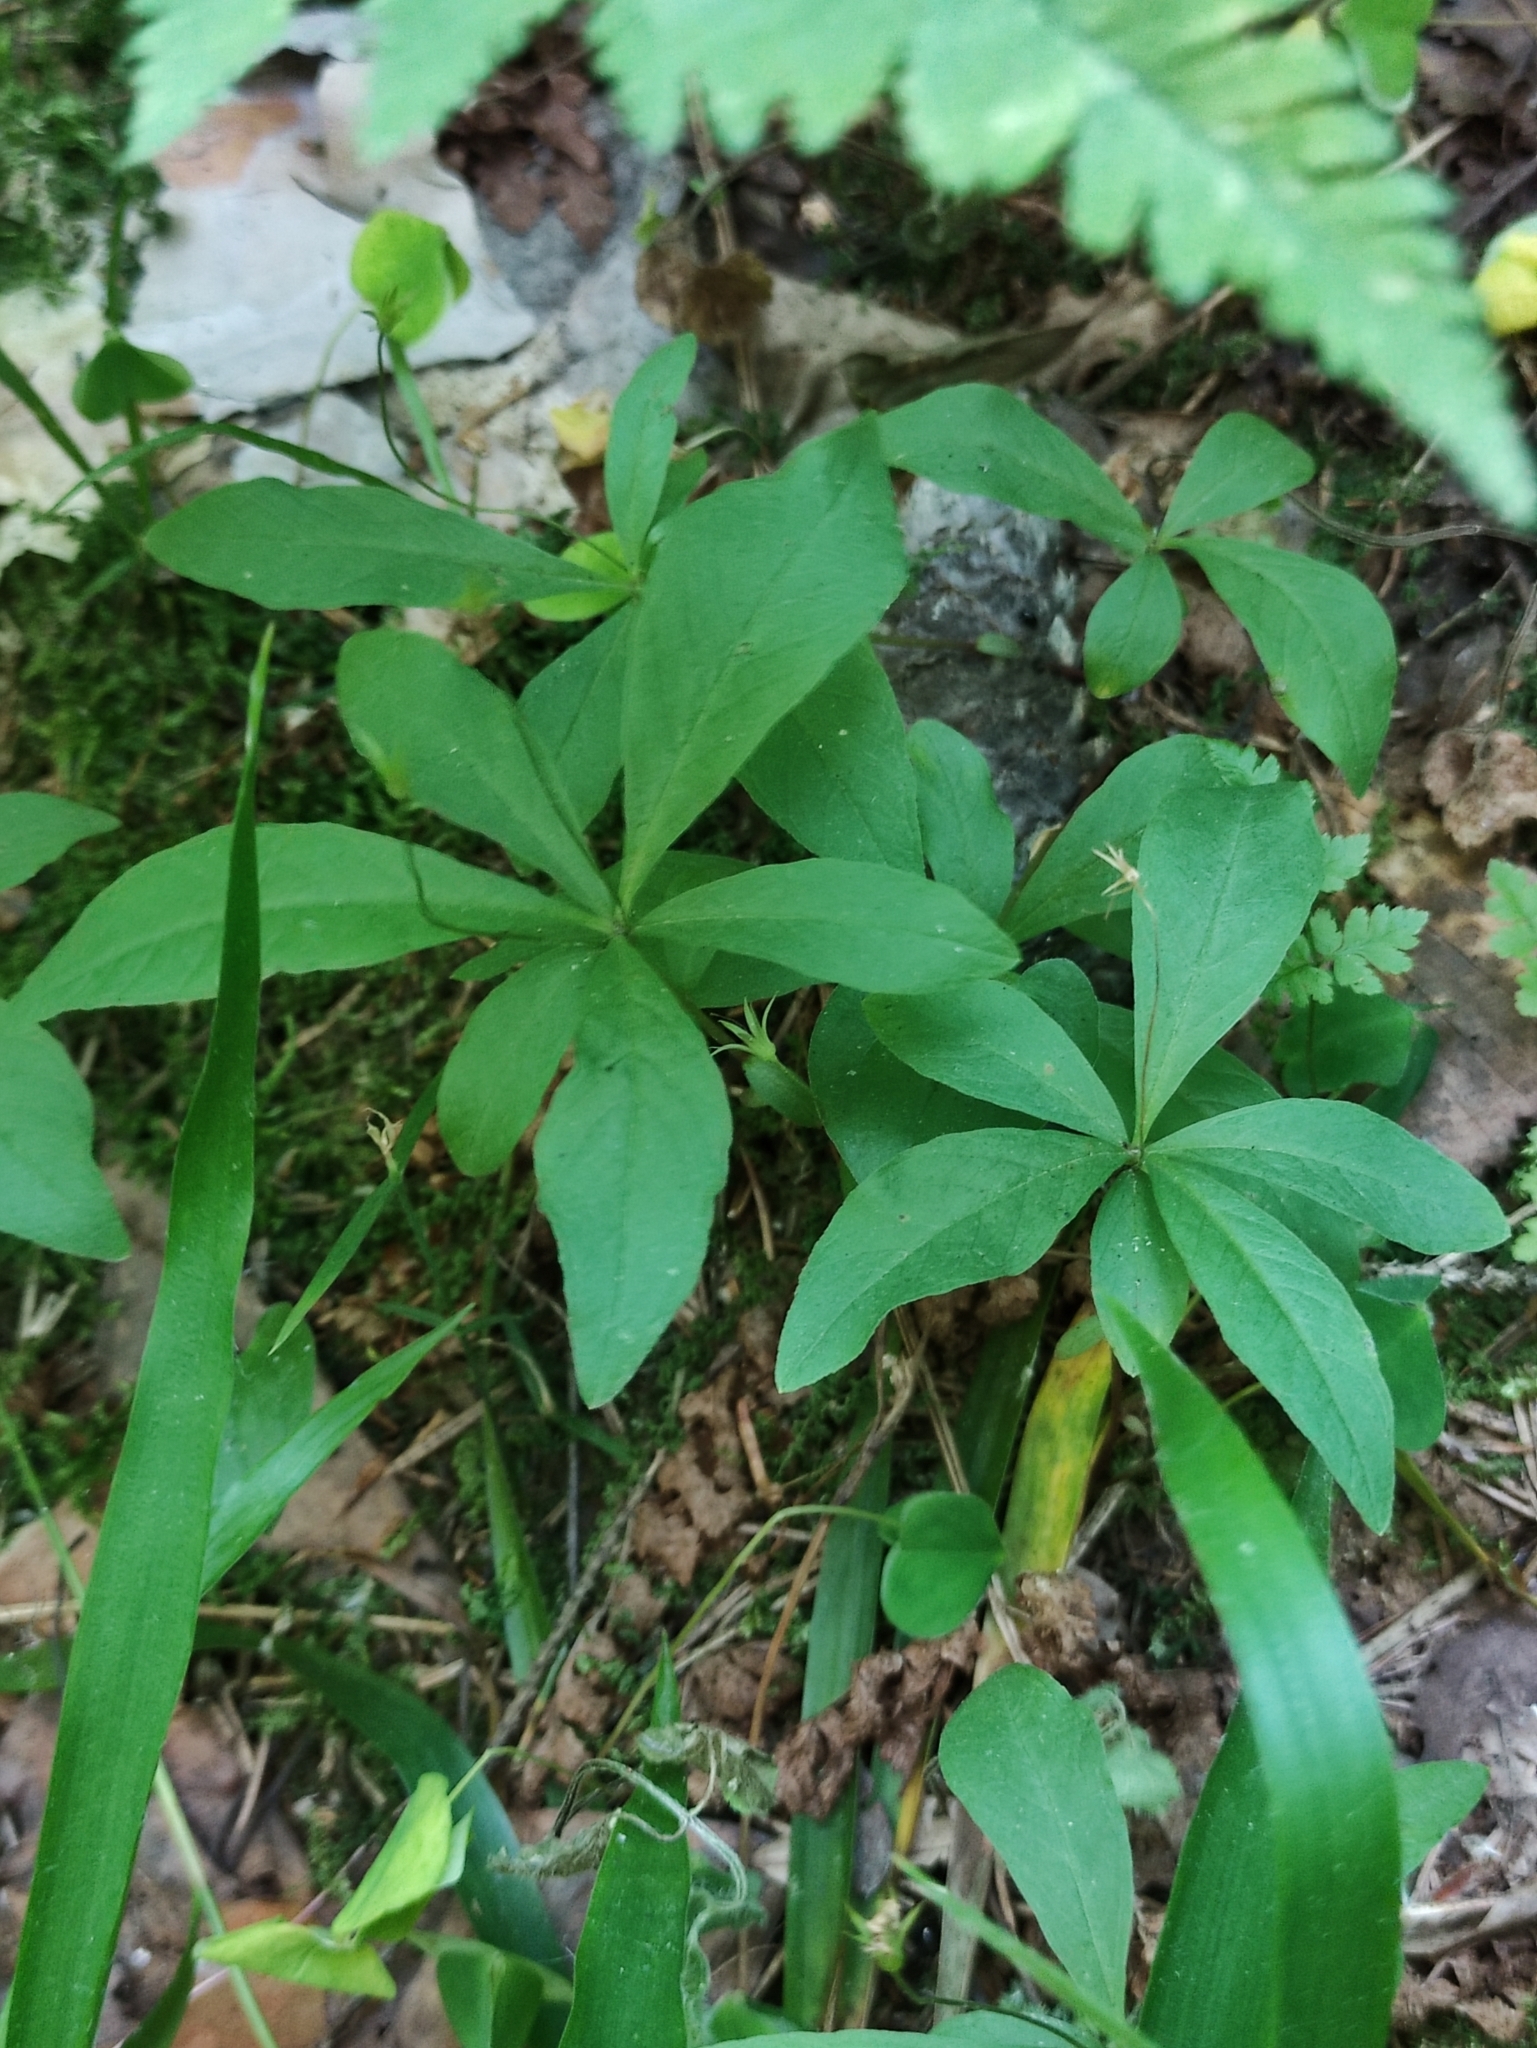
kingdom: Plantae
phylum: Tracheophyta
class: Magnoliopsida
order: Ericales
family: Primulaceae
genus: Lysimachia
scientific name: Lysimachia europaea
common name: Arctic starflower
